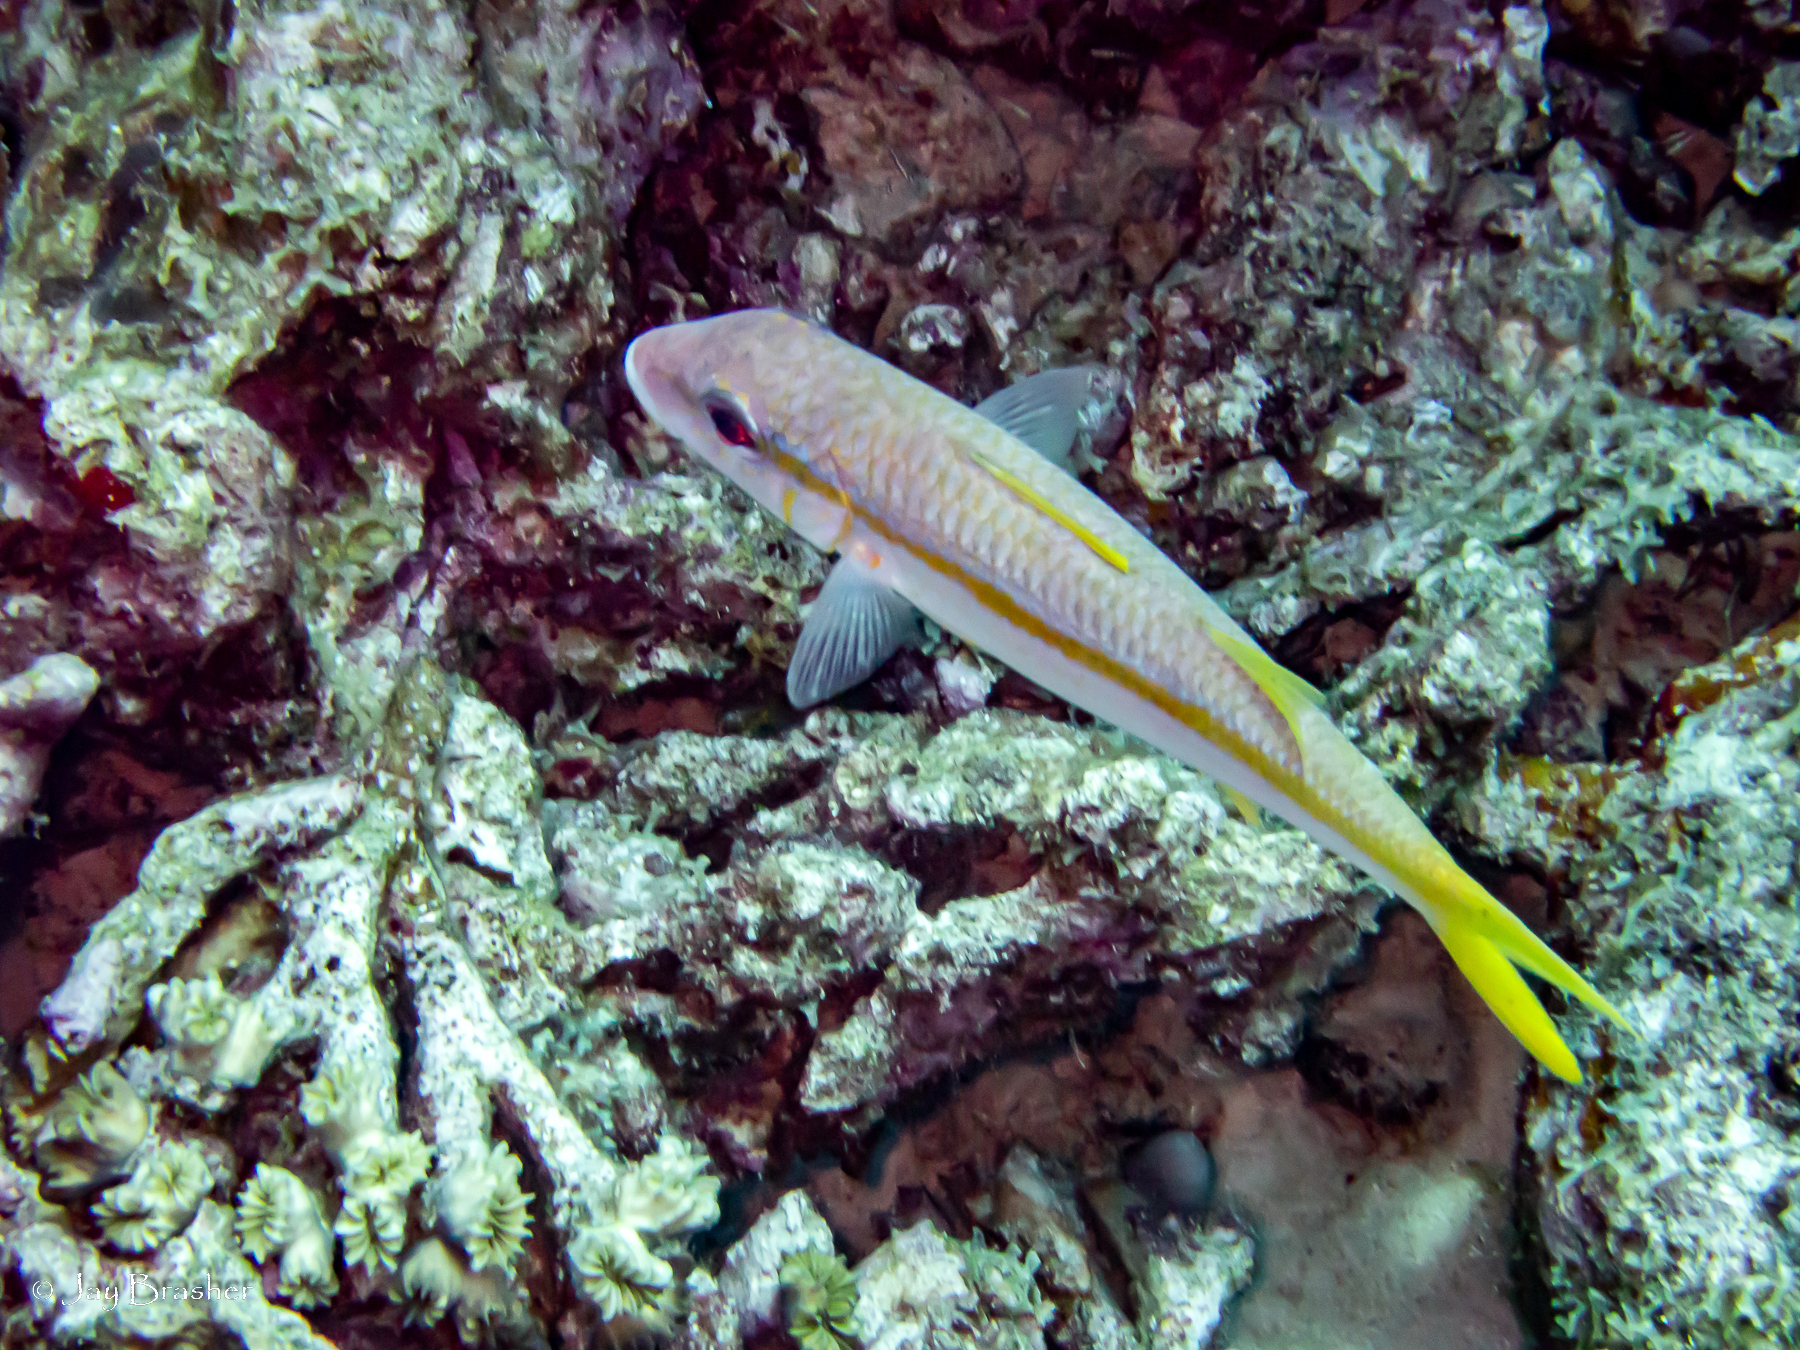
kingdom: Animalia
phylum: Chordata
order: Perciformes
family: Mullidae
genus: Mulloidichthys
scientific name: Mulloidichthys martinicus
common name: Yellow goatfish
